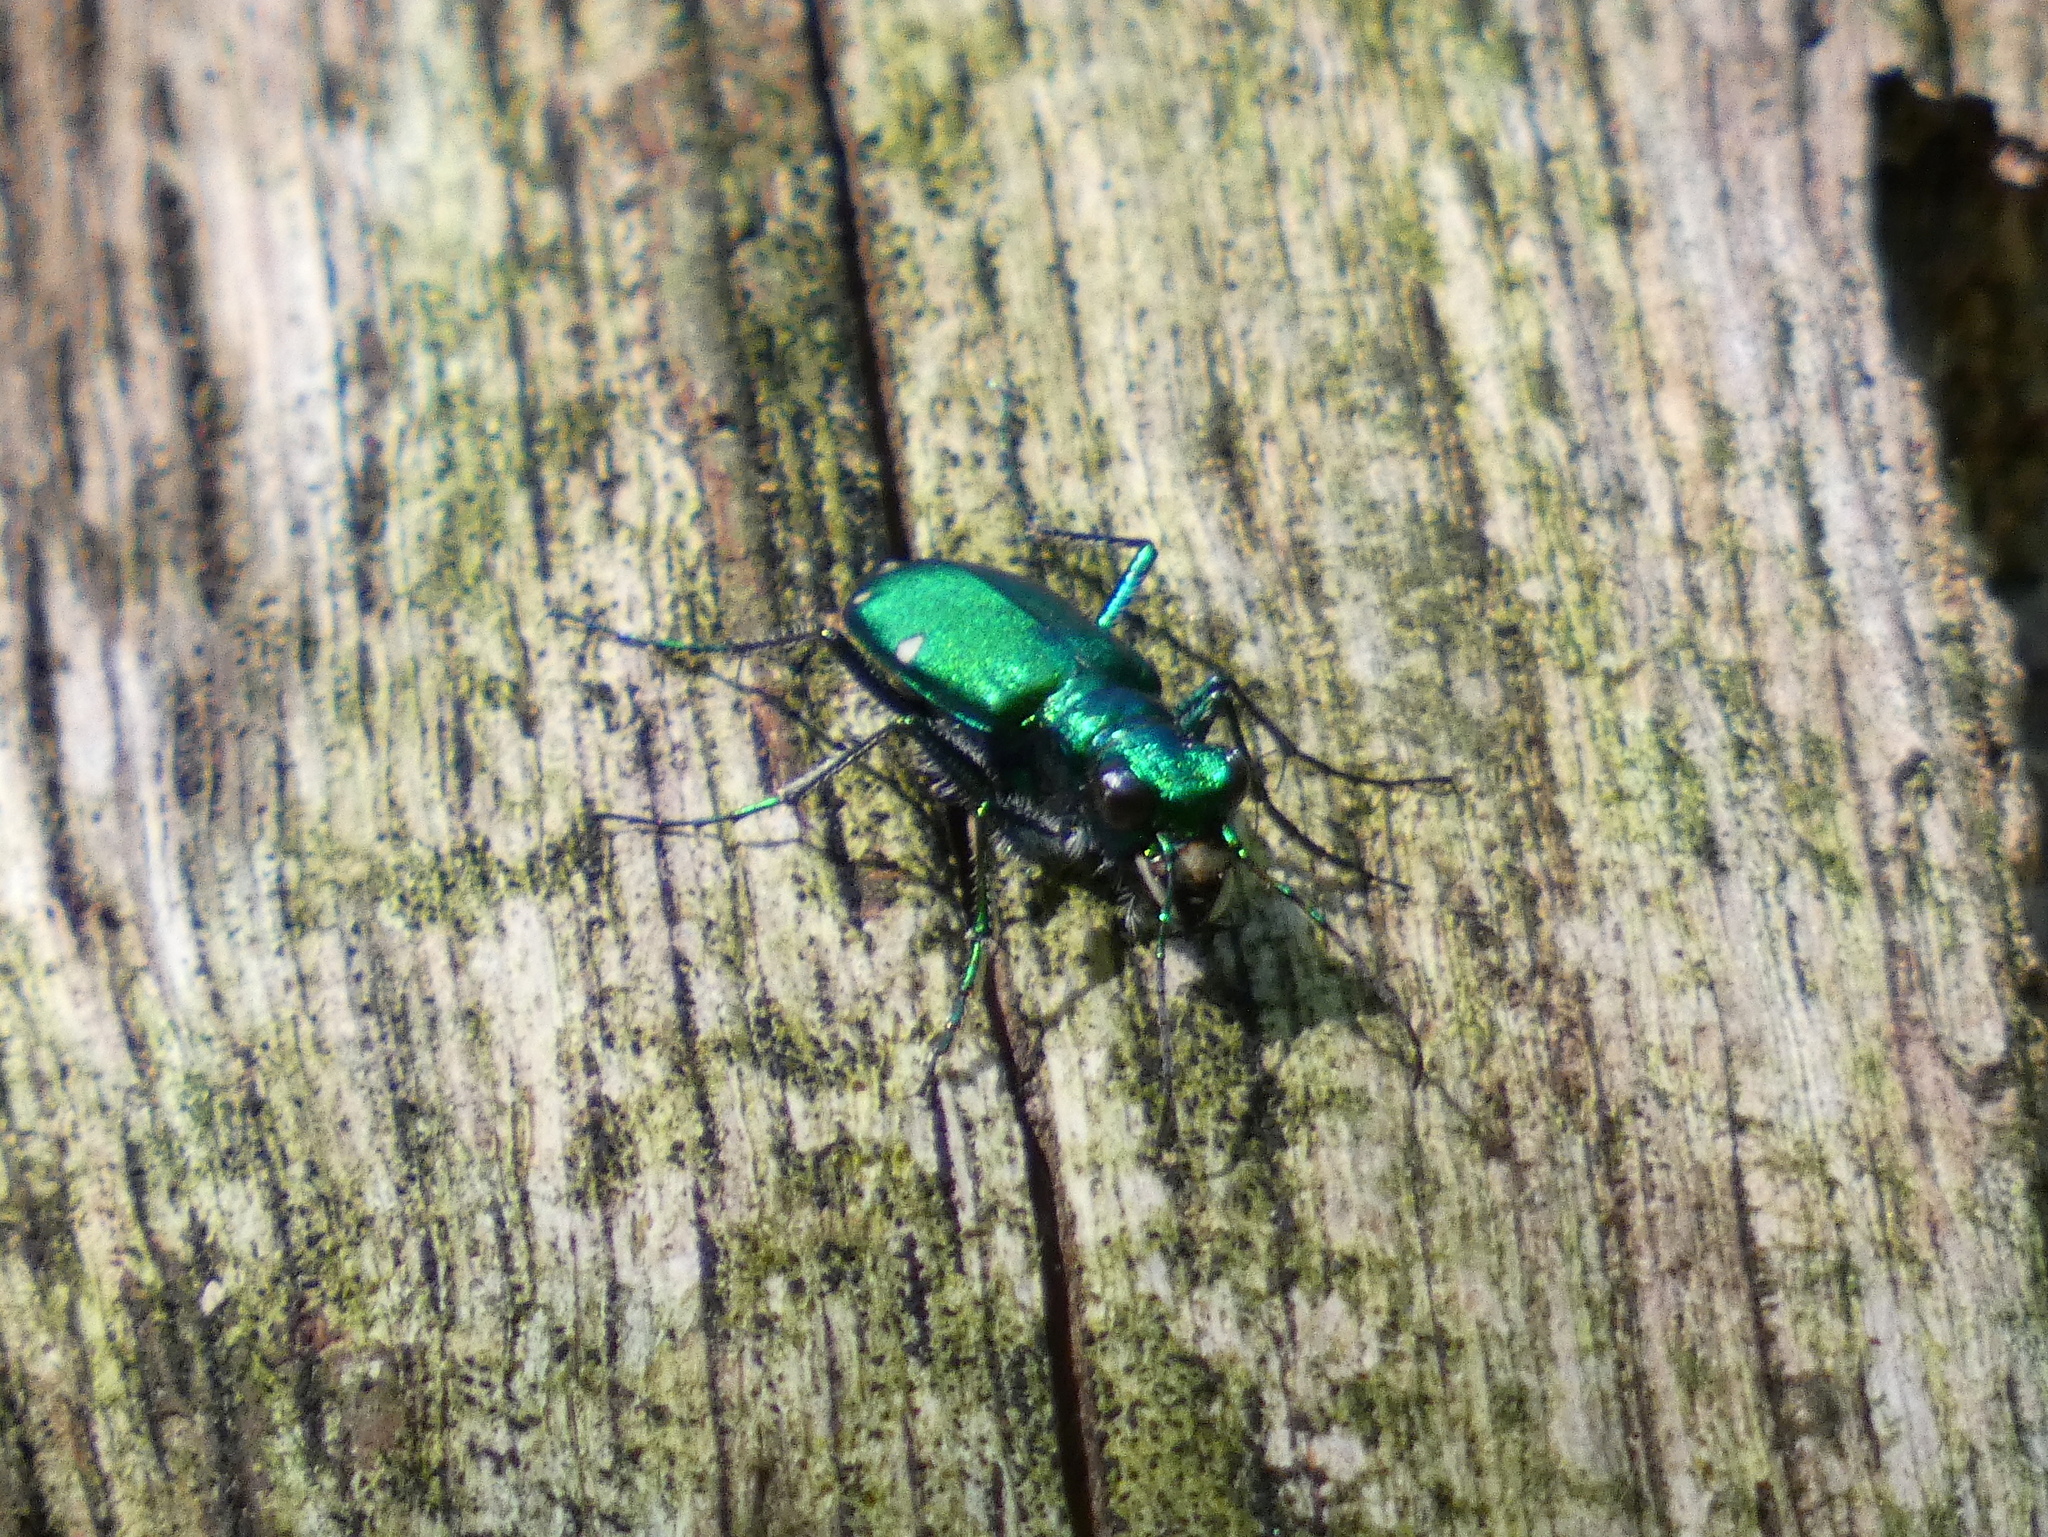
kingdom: Animalia
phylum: Arthropoda
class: Insecta
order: Coleoptera
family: Carabidae
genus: Cicindela
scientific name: Cicindela sexguttata
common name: Six-spotted tiger beetle
